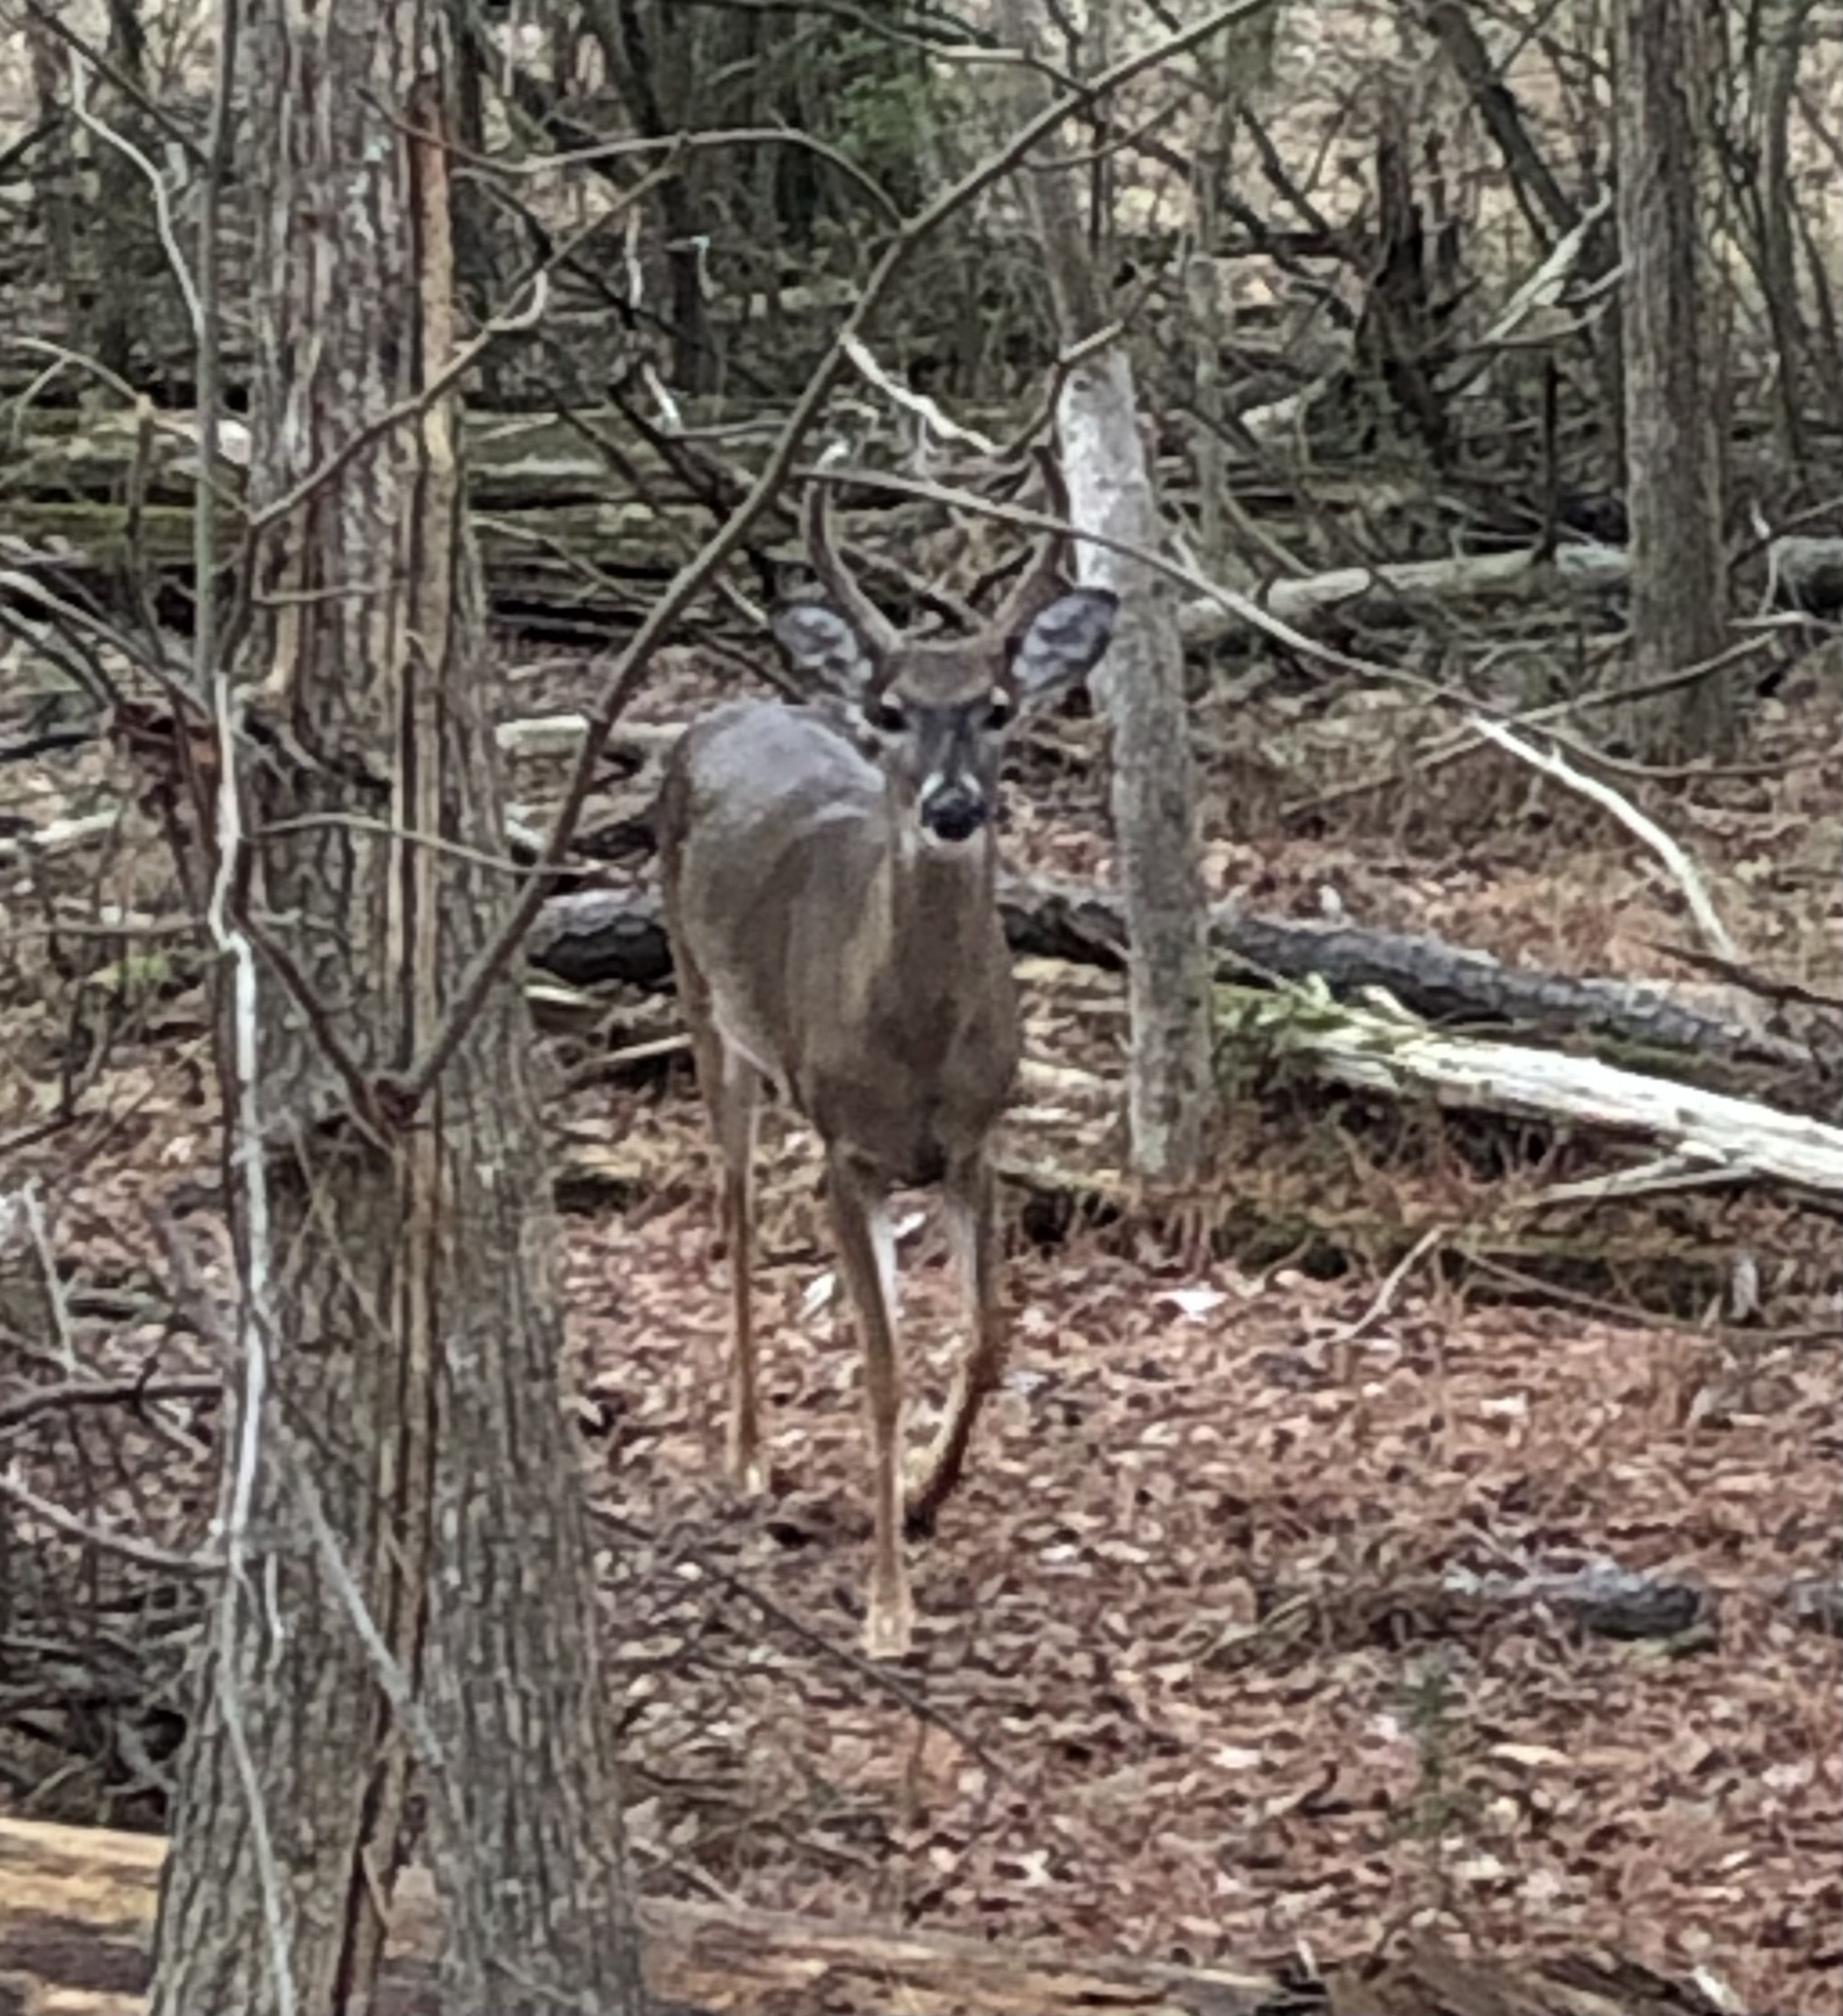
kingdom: Animalia
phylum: Chordata
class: Mammalia
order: Artiodactyla
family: Cervidae
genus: Odocoileus
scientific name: Odocoileus virginianus
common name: White-tailed deer
